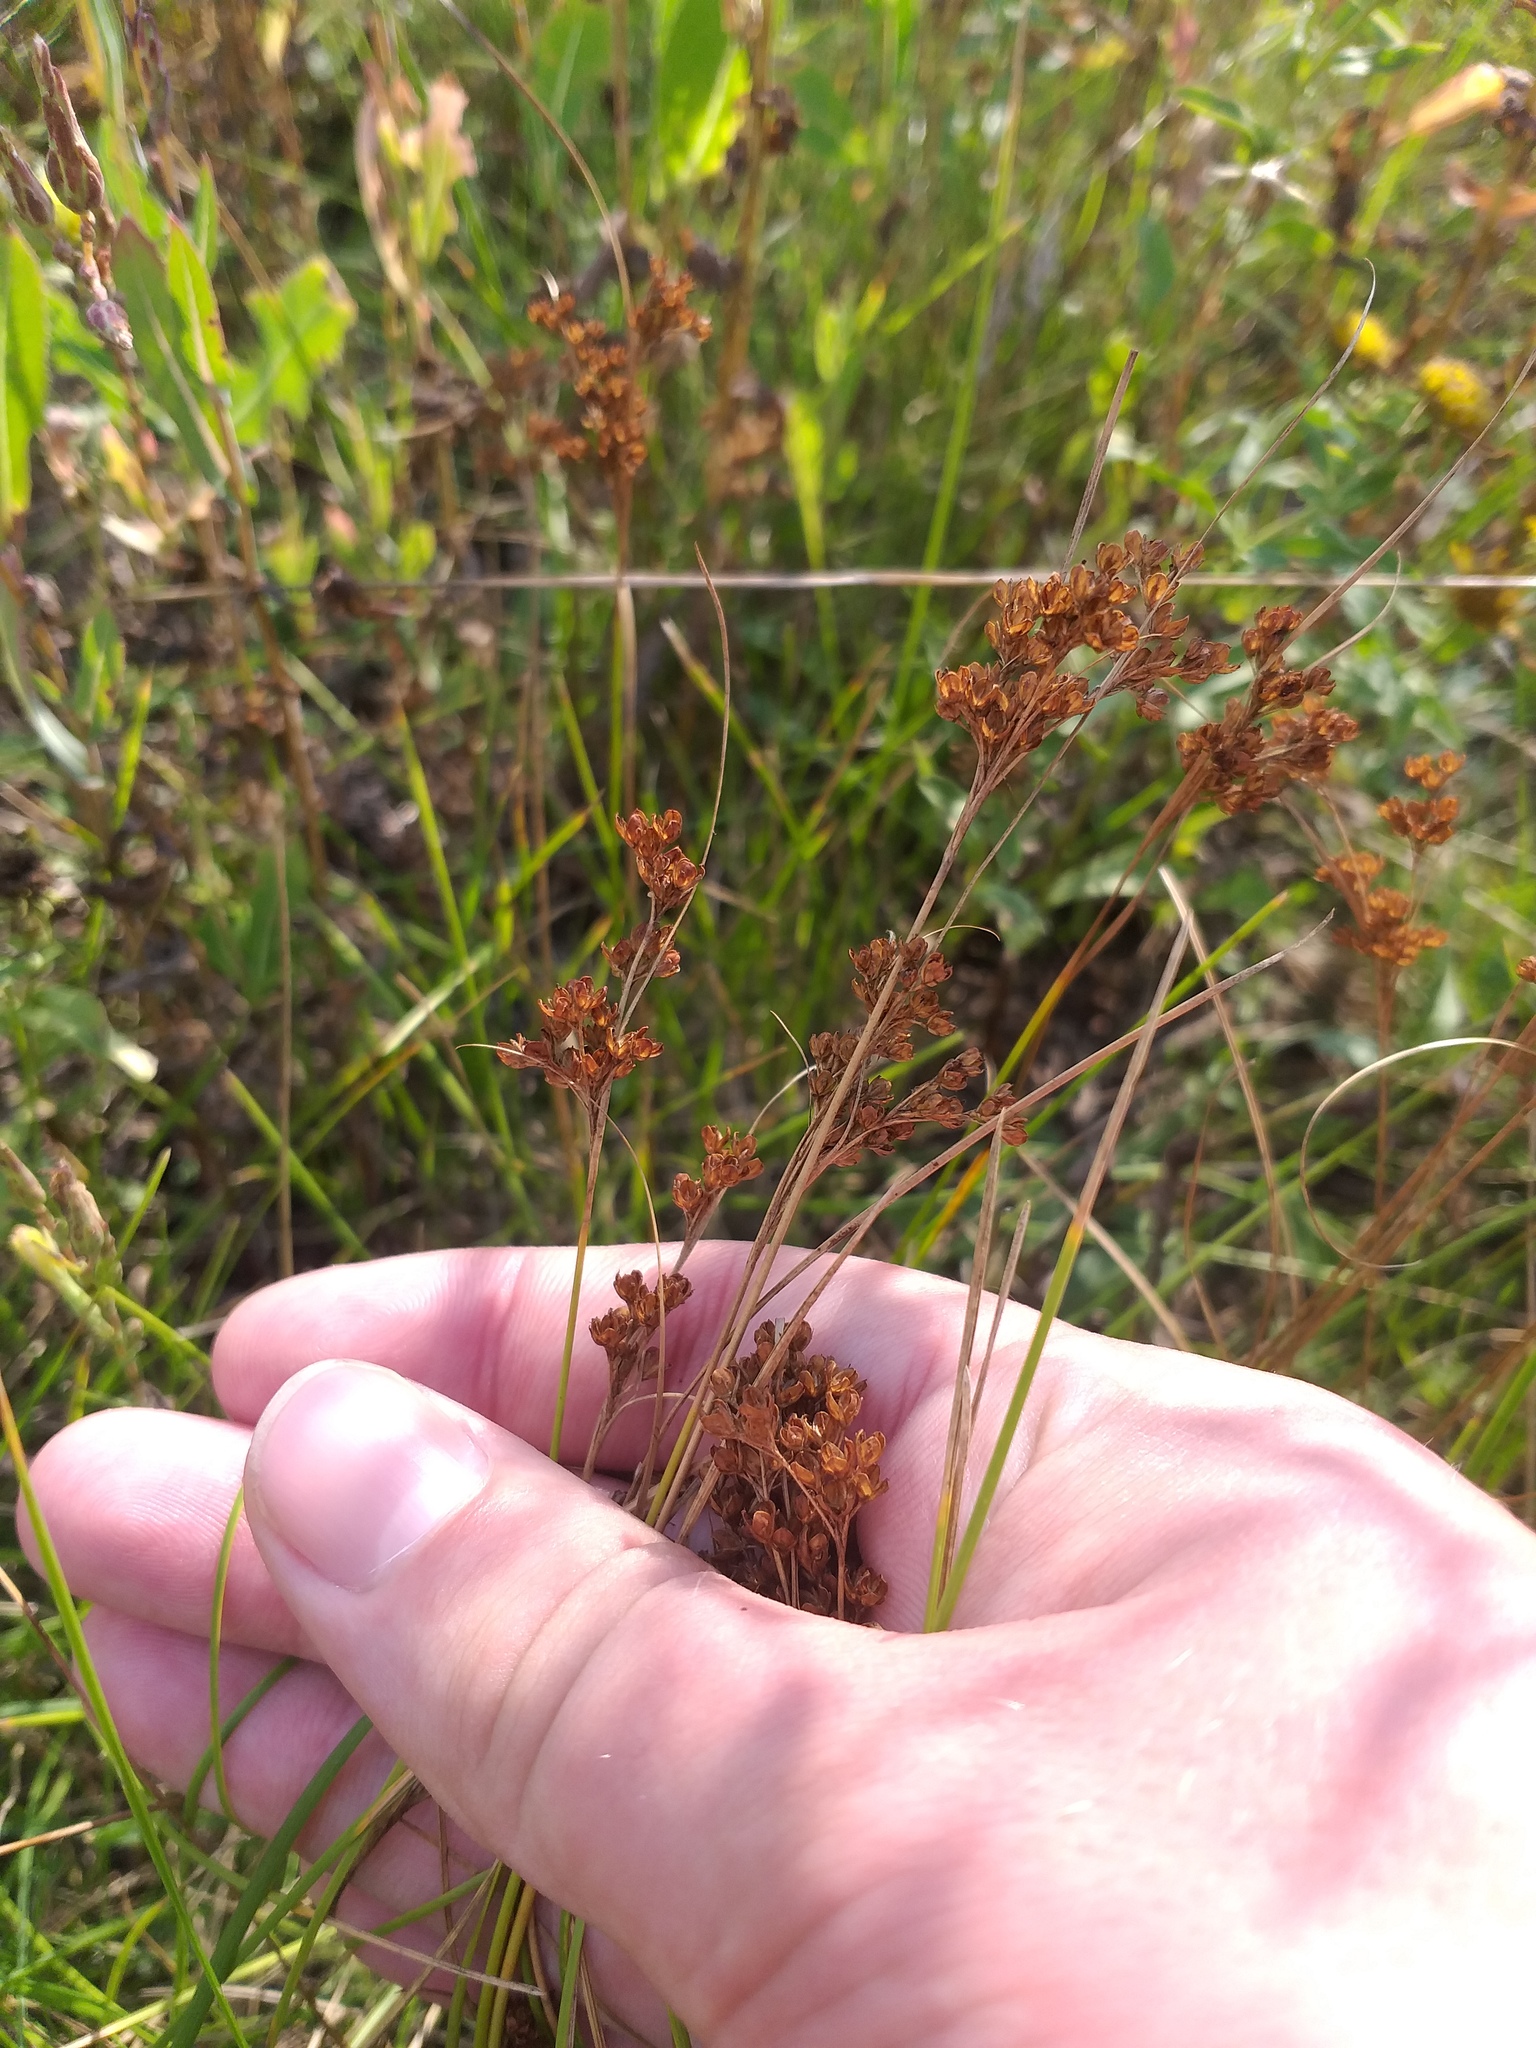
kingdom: Plantae
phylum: Tracheophyta
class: Liliopsida
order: Poales
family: Juncaceae
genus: Juncus
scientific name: Juncus compressus
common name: Round-fruited rush
